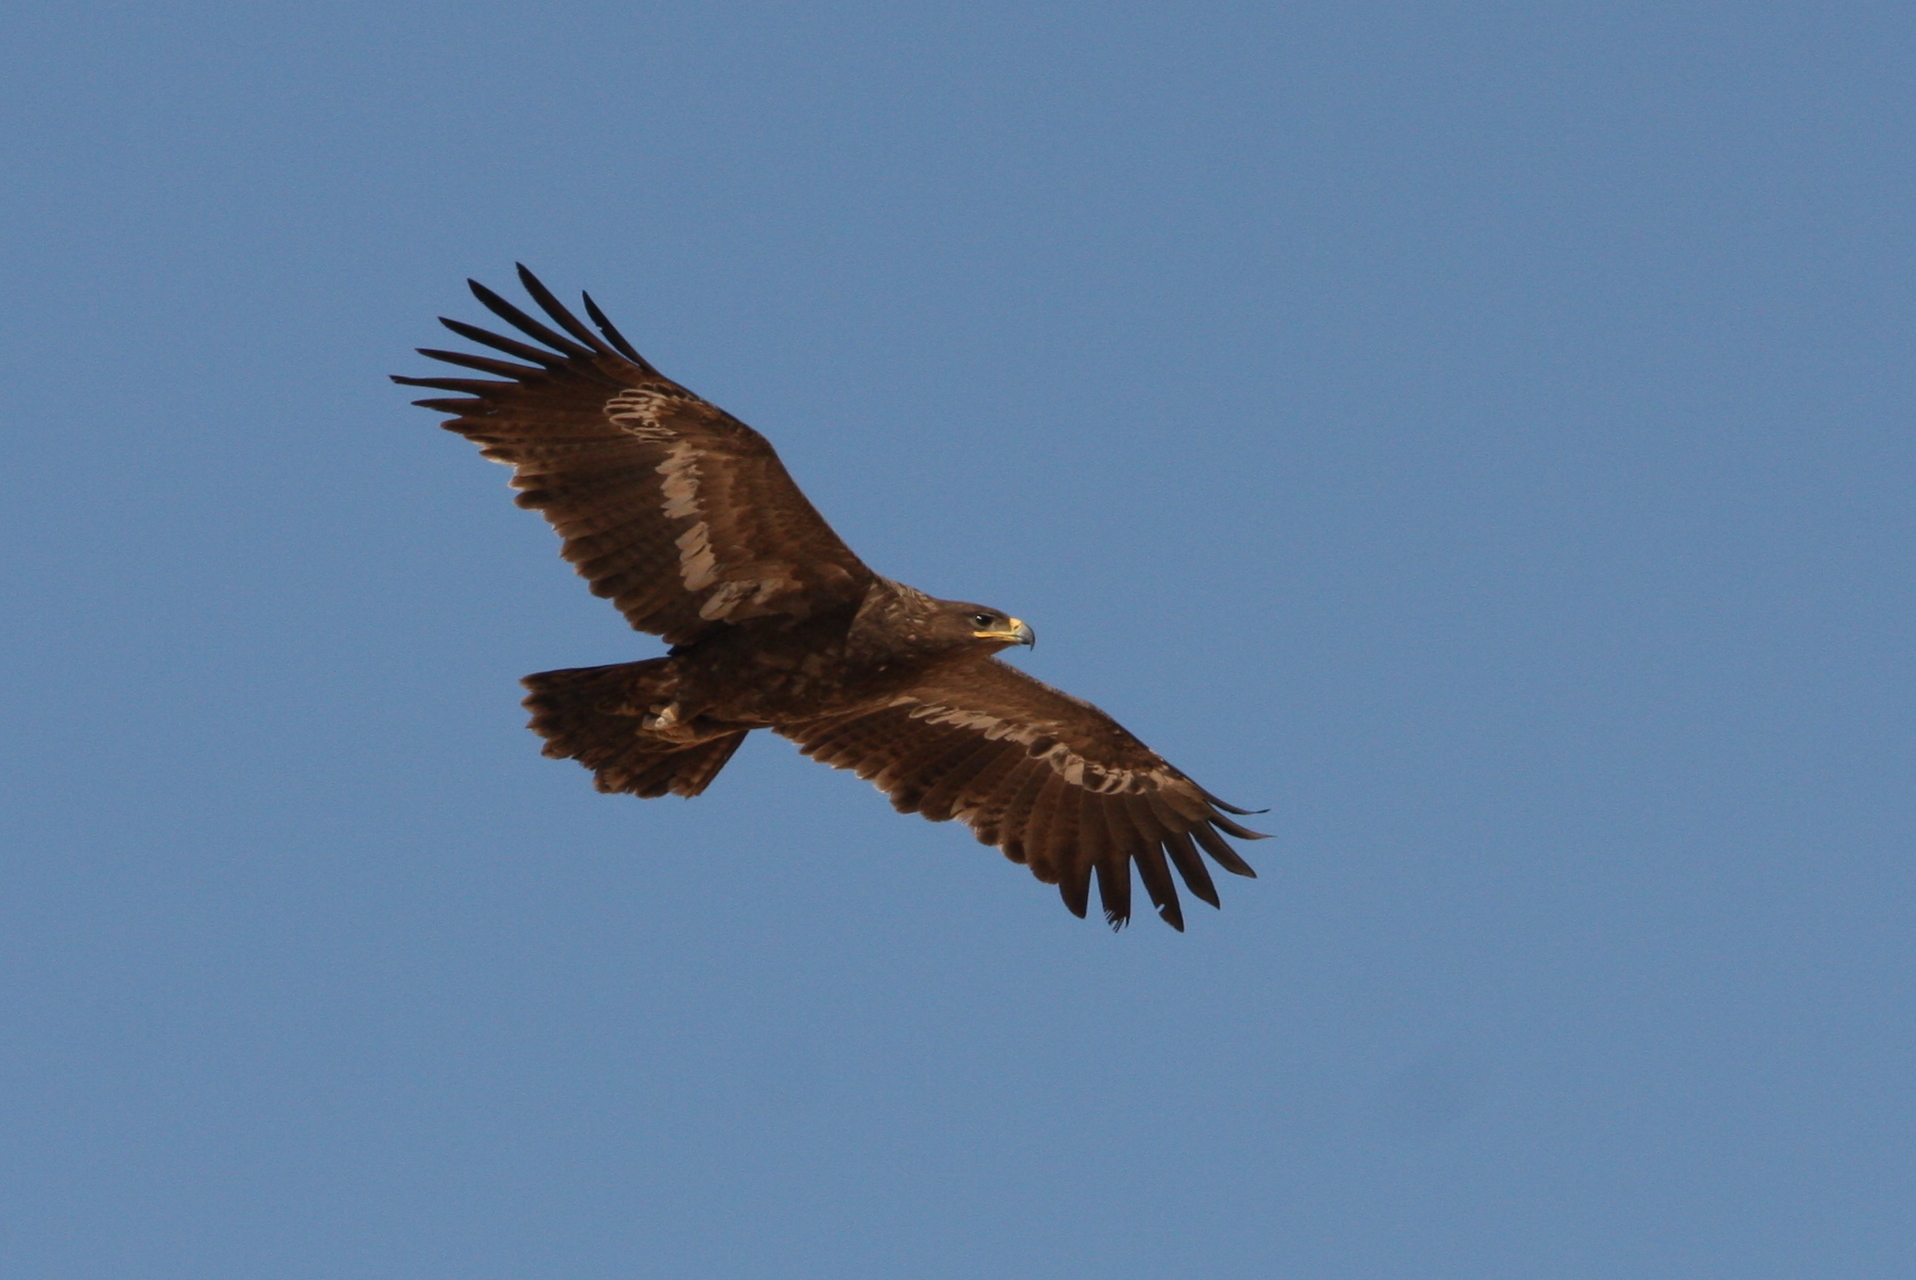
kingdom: Animalia
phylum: Chordata
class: Aves
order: Accipitriformes
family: Accipitridae
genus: Aquila
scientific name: Aquila nipalensis
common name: Steppe eagle
